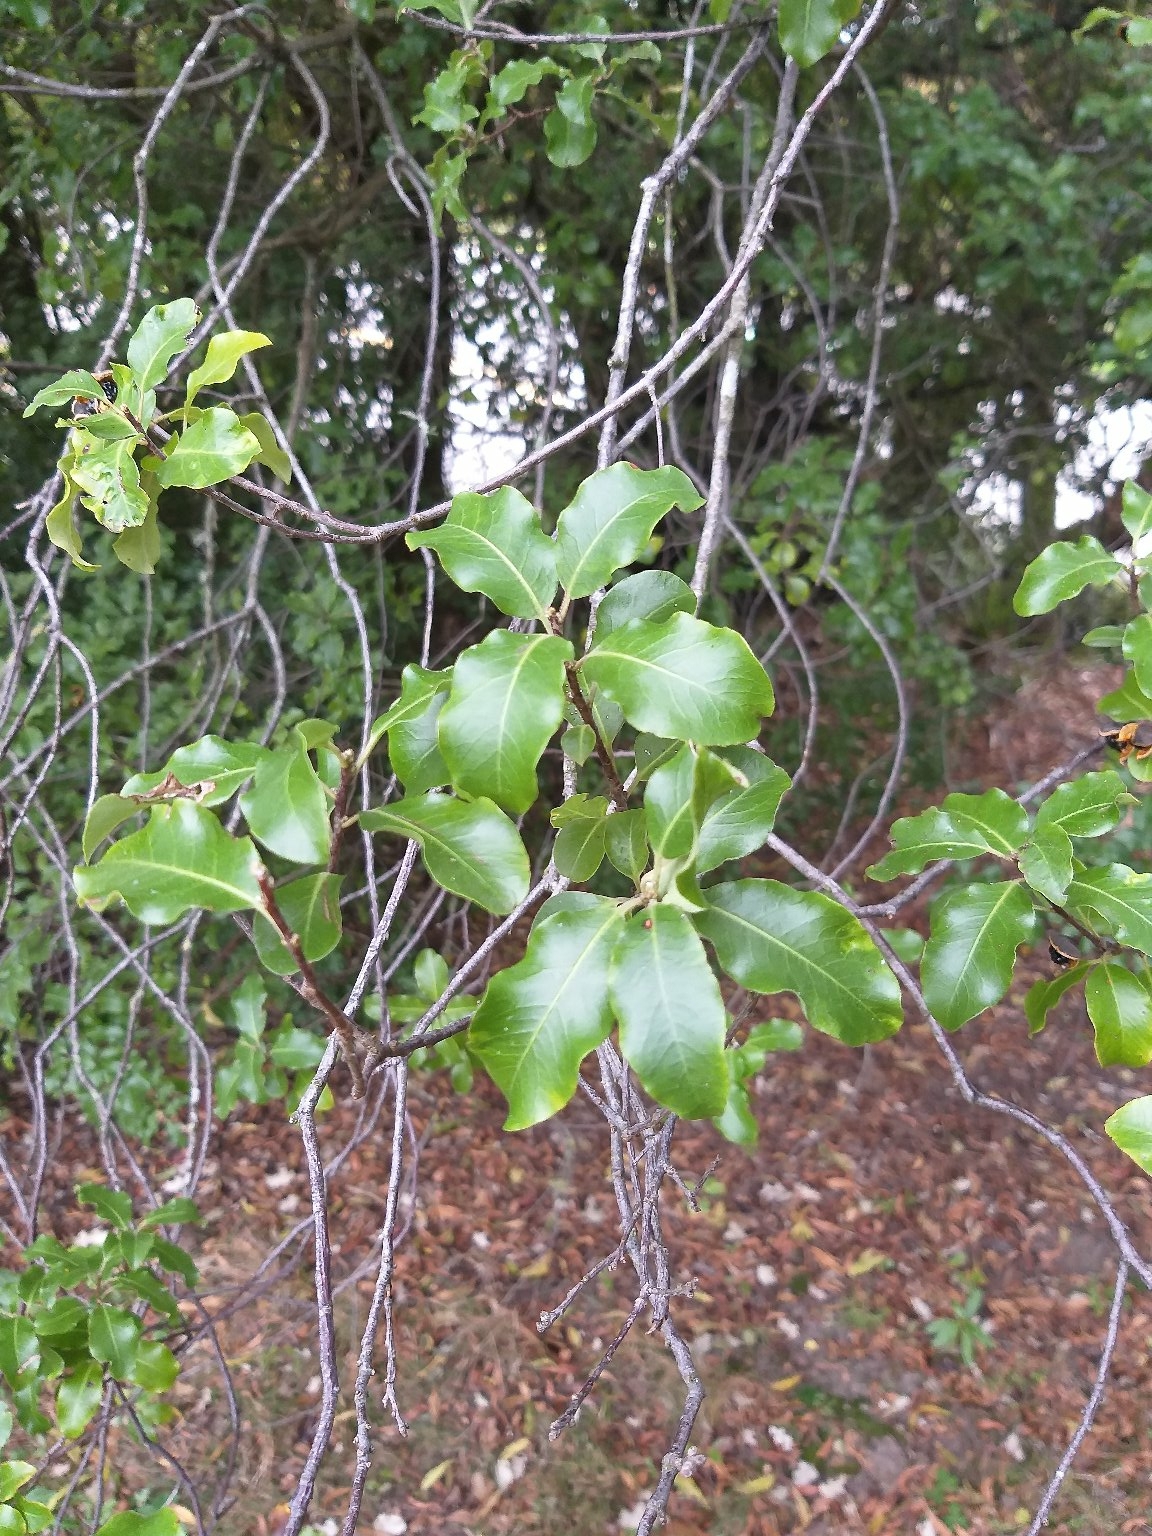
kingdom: Plantae
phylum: Tracheophyta
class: Magnoliopsida
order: Apiales
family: Pittosporaceae
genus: Pittosporum
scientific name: Pittosporum tenuifolium
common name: Kohuhu
